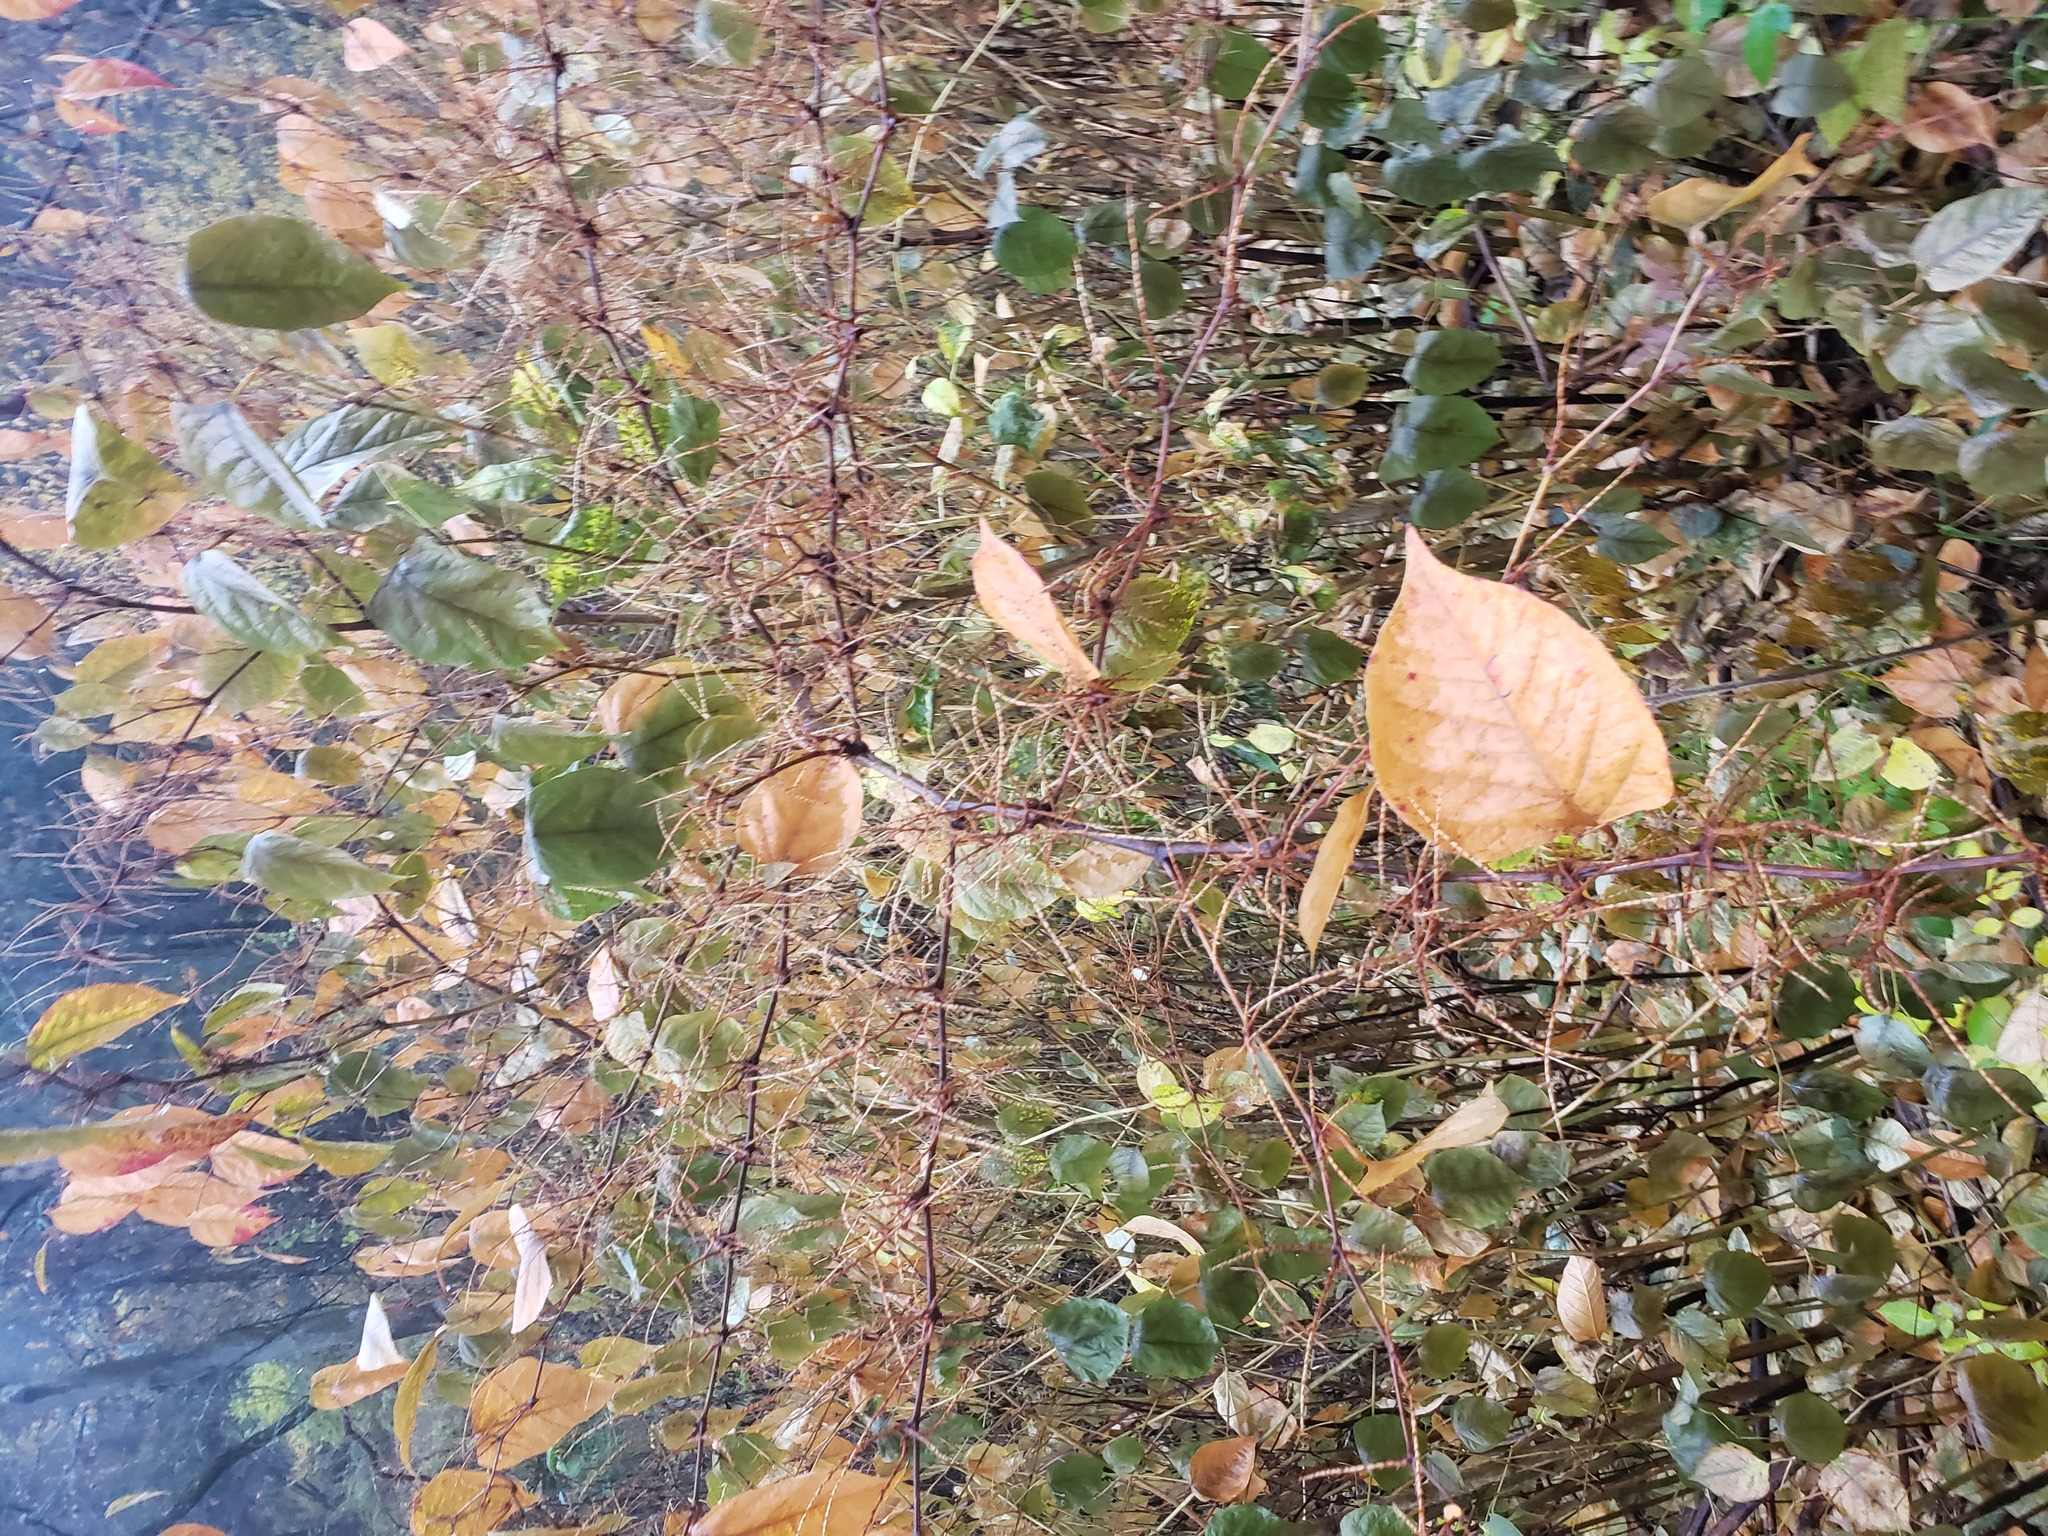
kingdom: Plantae
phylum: Tracheophyta
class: Magnoliopsida
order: Caryophyllales
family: Polygonaceae
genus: Reynoutria
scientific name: Reynoutria japonica
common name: Japanese knotweed
